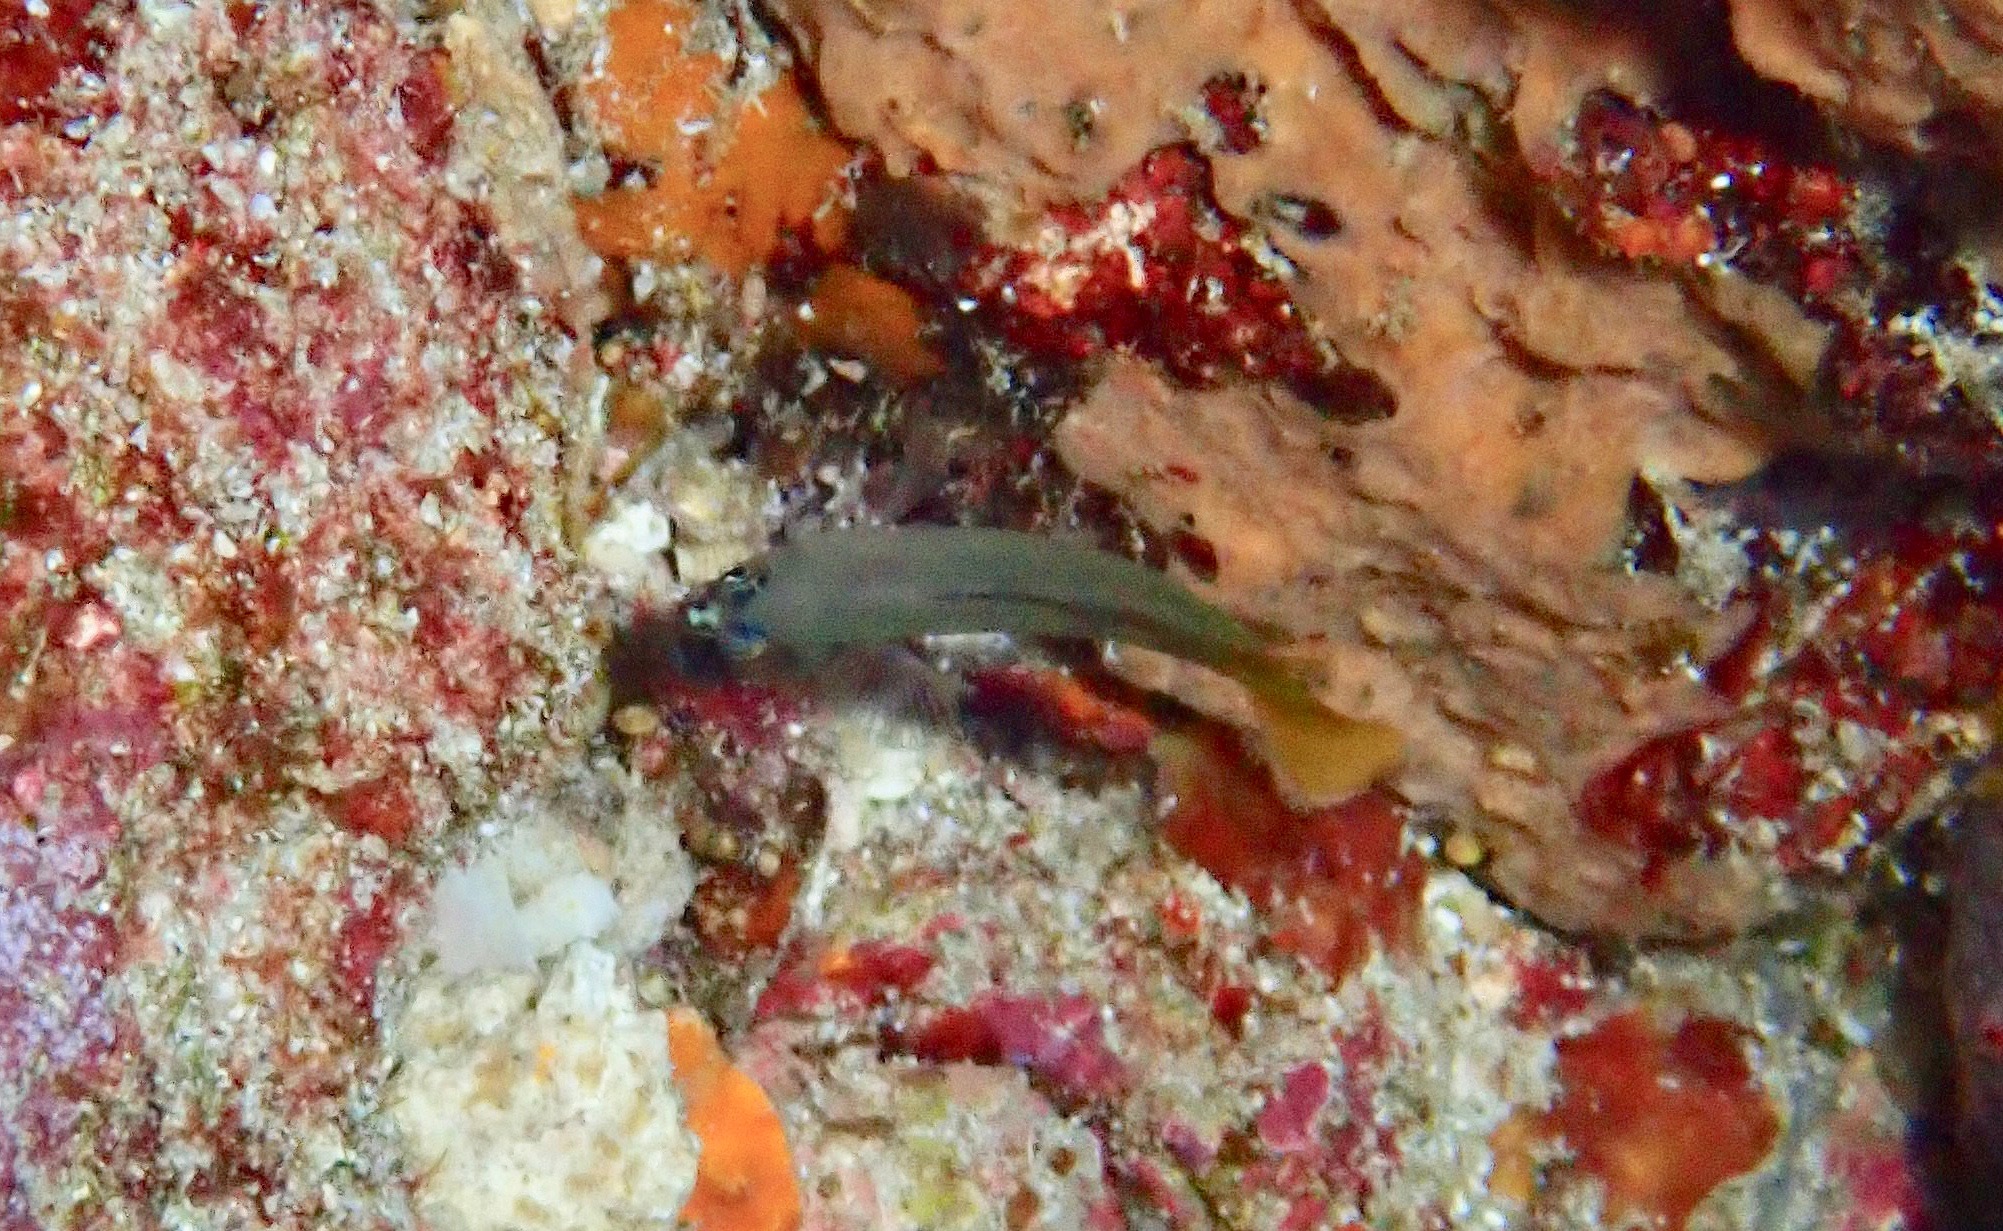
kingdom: Animalia
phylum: Chordata
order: Perciformes
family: Pseudochromidae
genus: Amsichthys
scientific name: Amsichthys knighti
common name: Knight's dottyback
